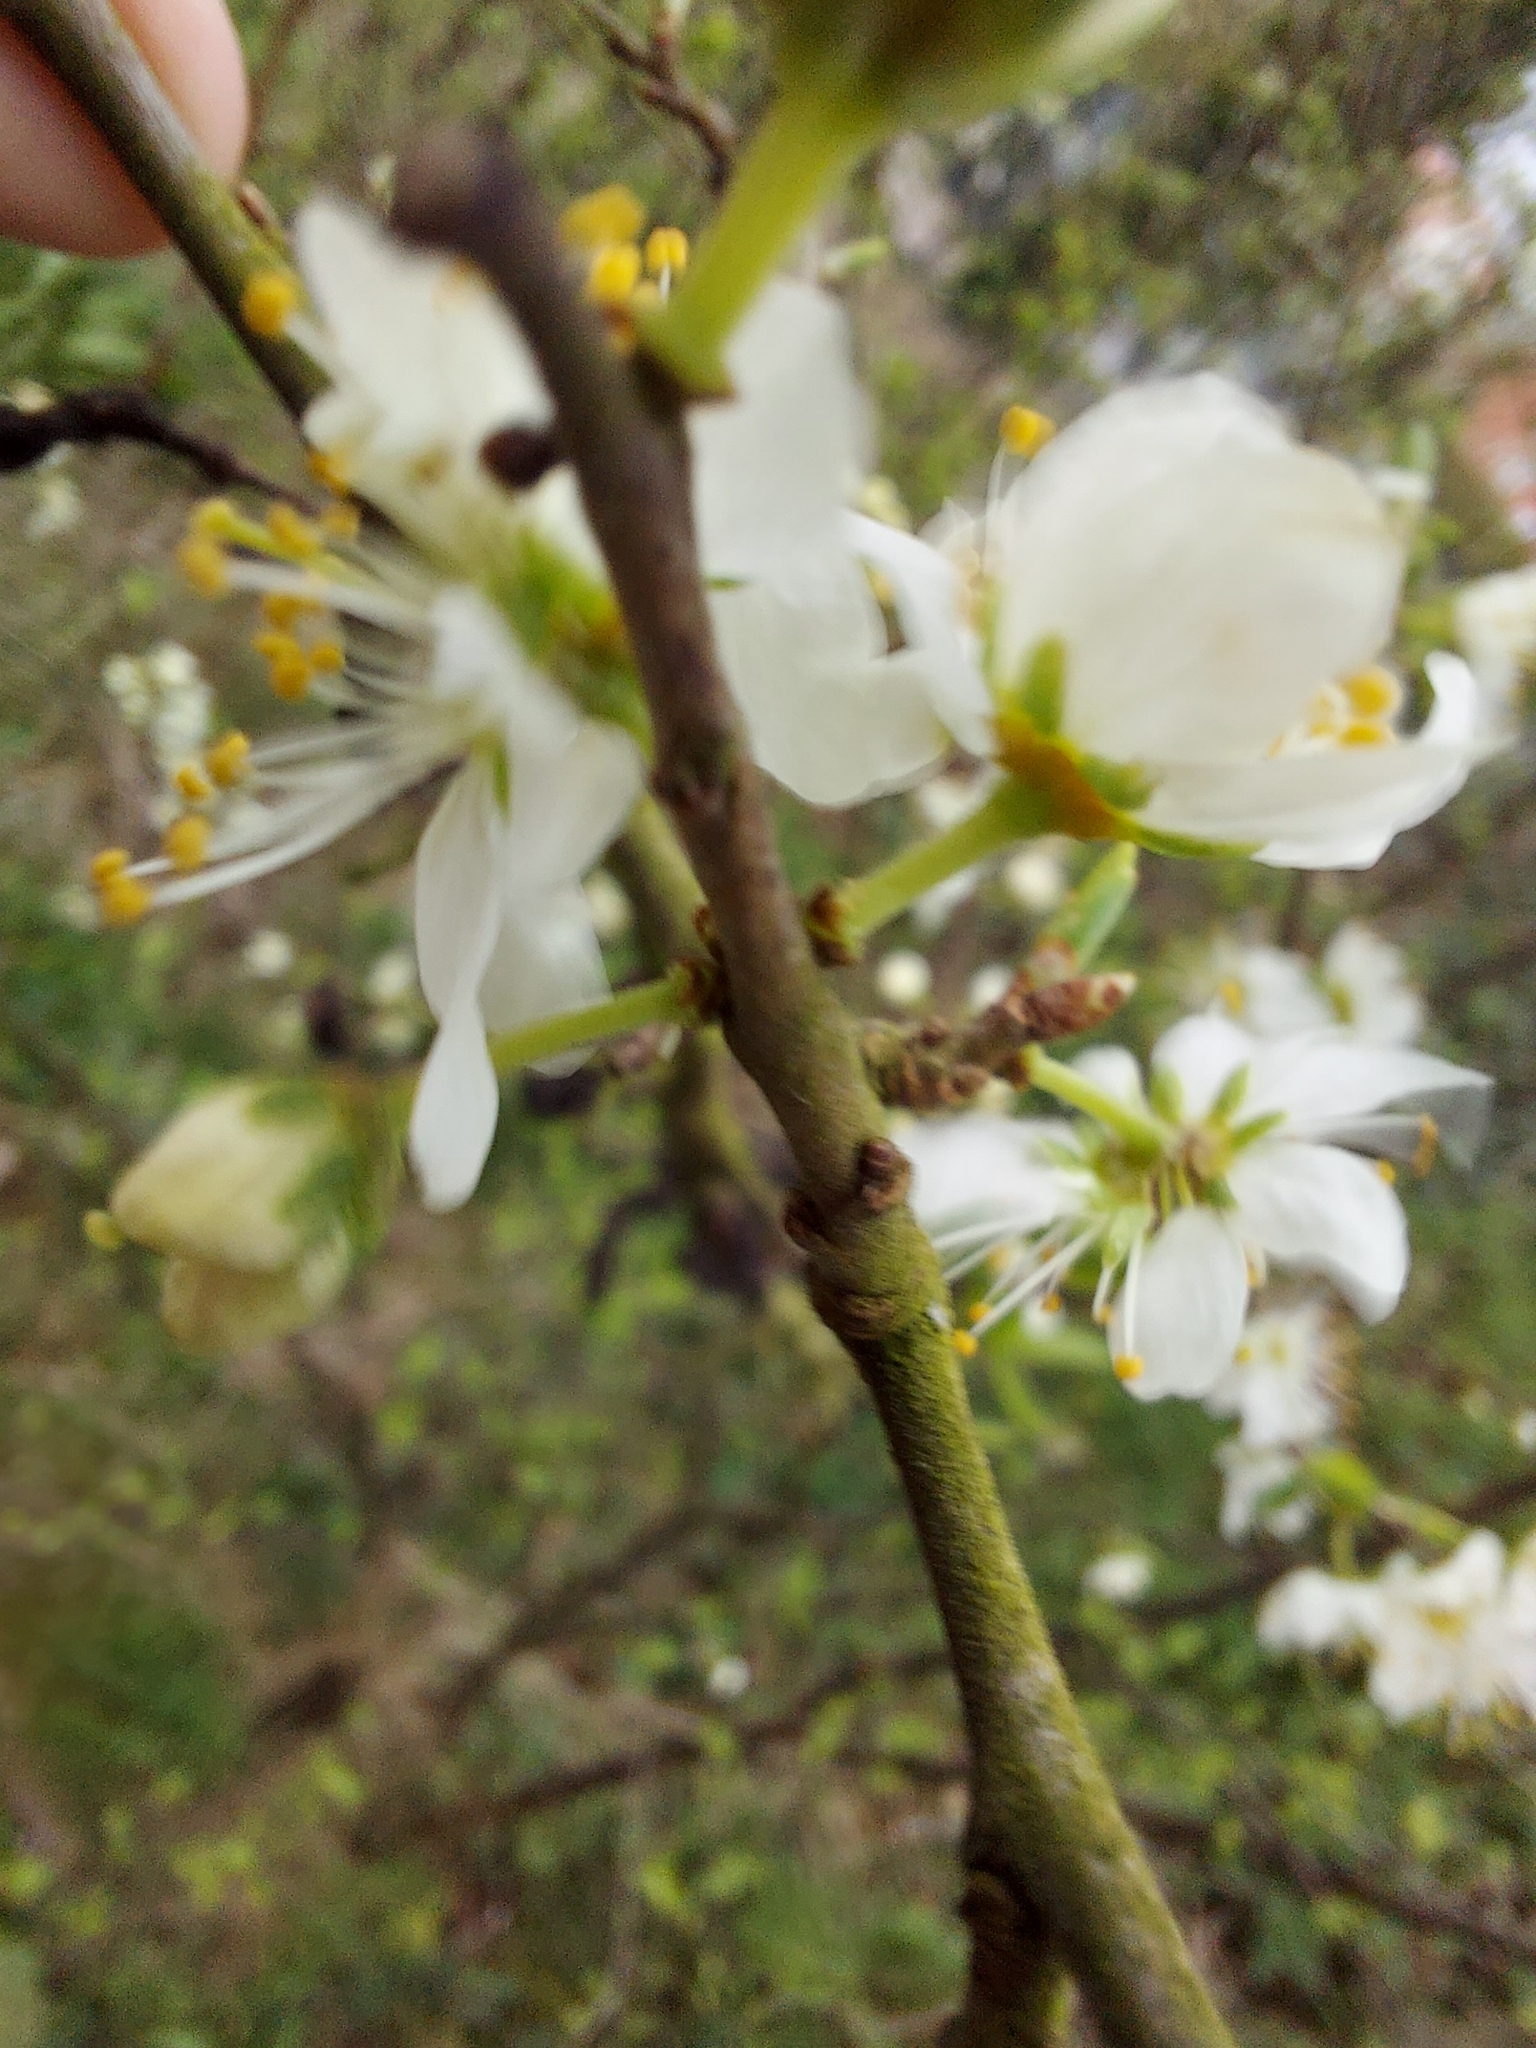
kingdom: Plantae
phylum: Tracheophyta
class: Magnoliopsida
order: Rosales
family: Rosaceae
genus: Prunus
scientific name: Prunus spinosa
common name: Blackthorn
